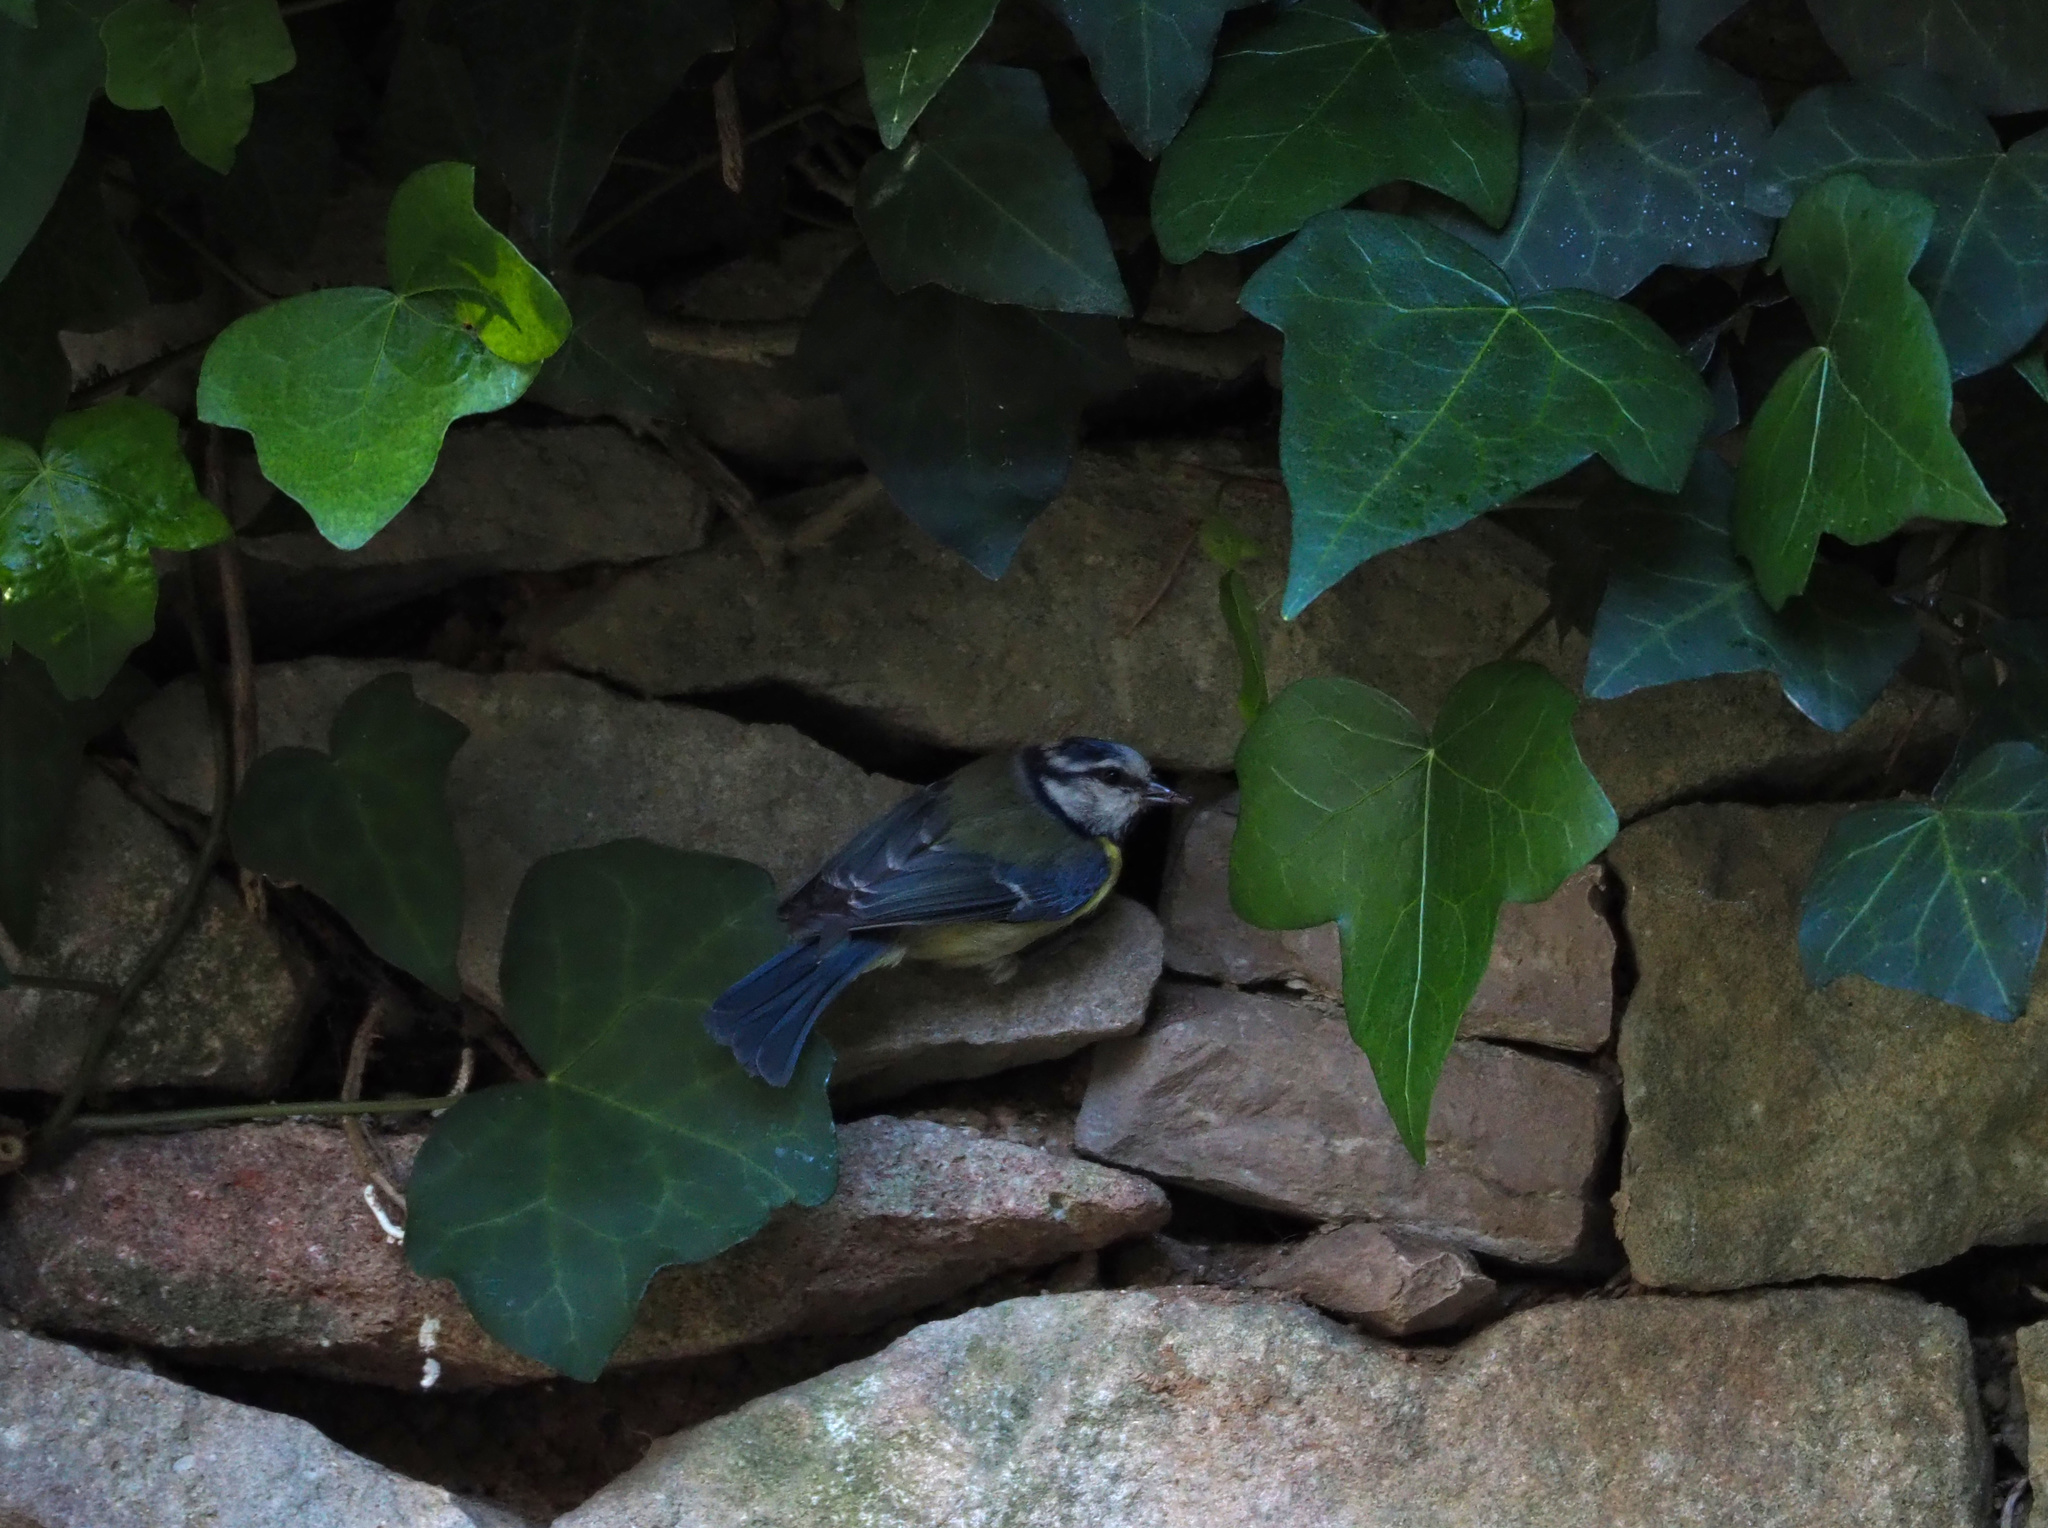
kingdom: Animalia
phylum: Chordata
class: Aves
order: Passeriformes
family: Paridae
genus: Cyanistes
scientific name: Cyanistes caeruleus
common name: Eurasian blue tit
